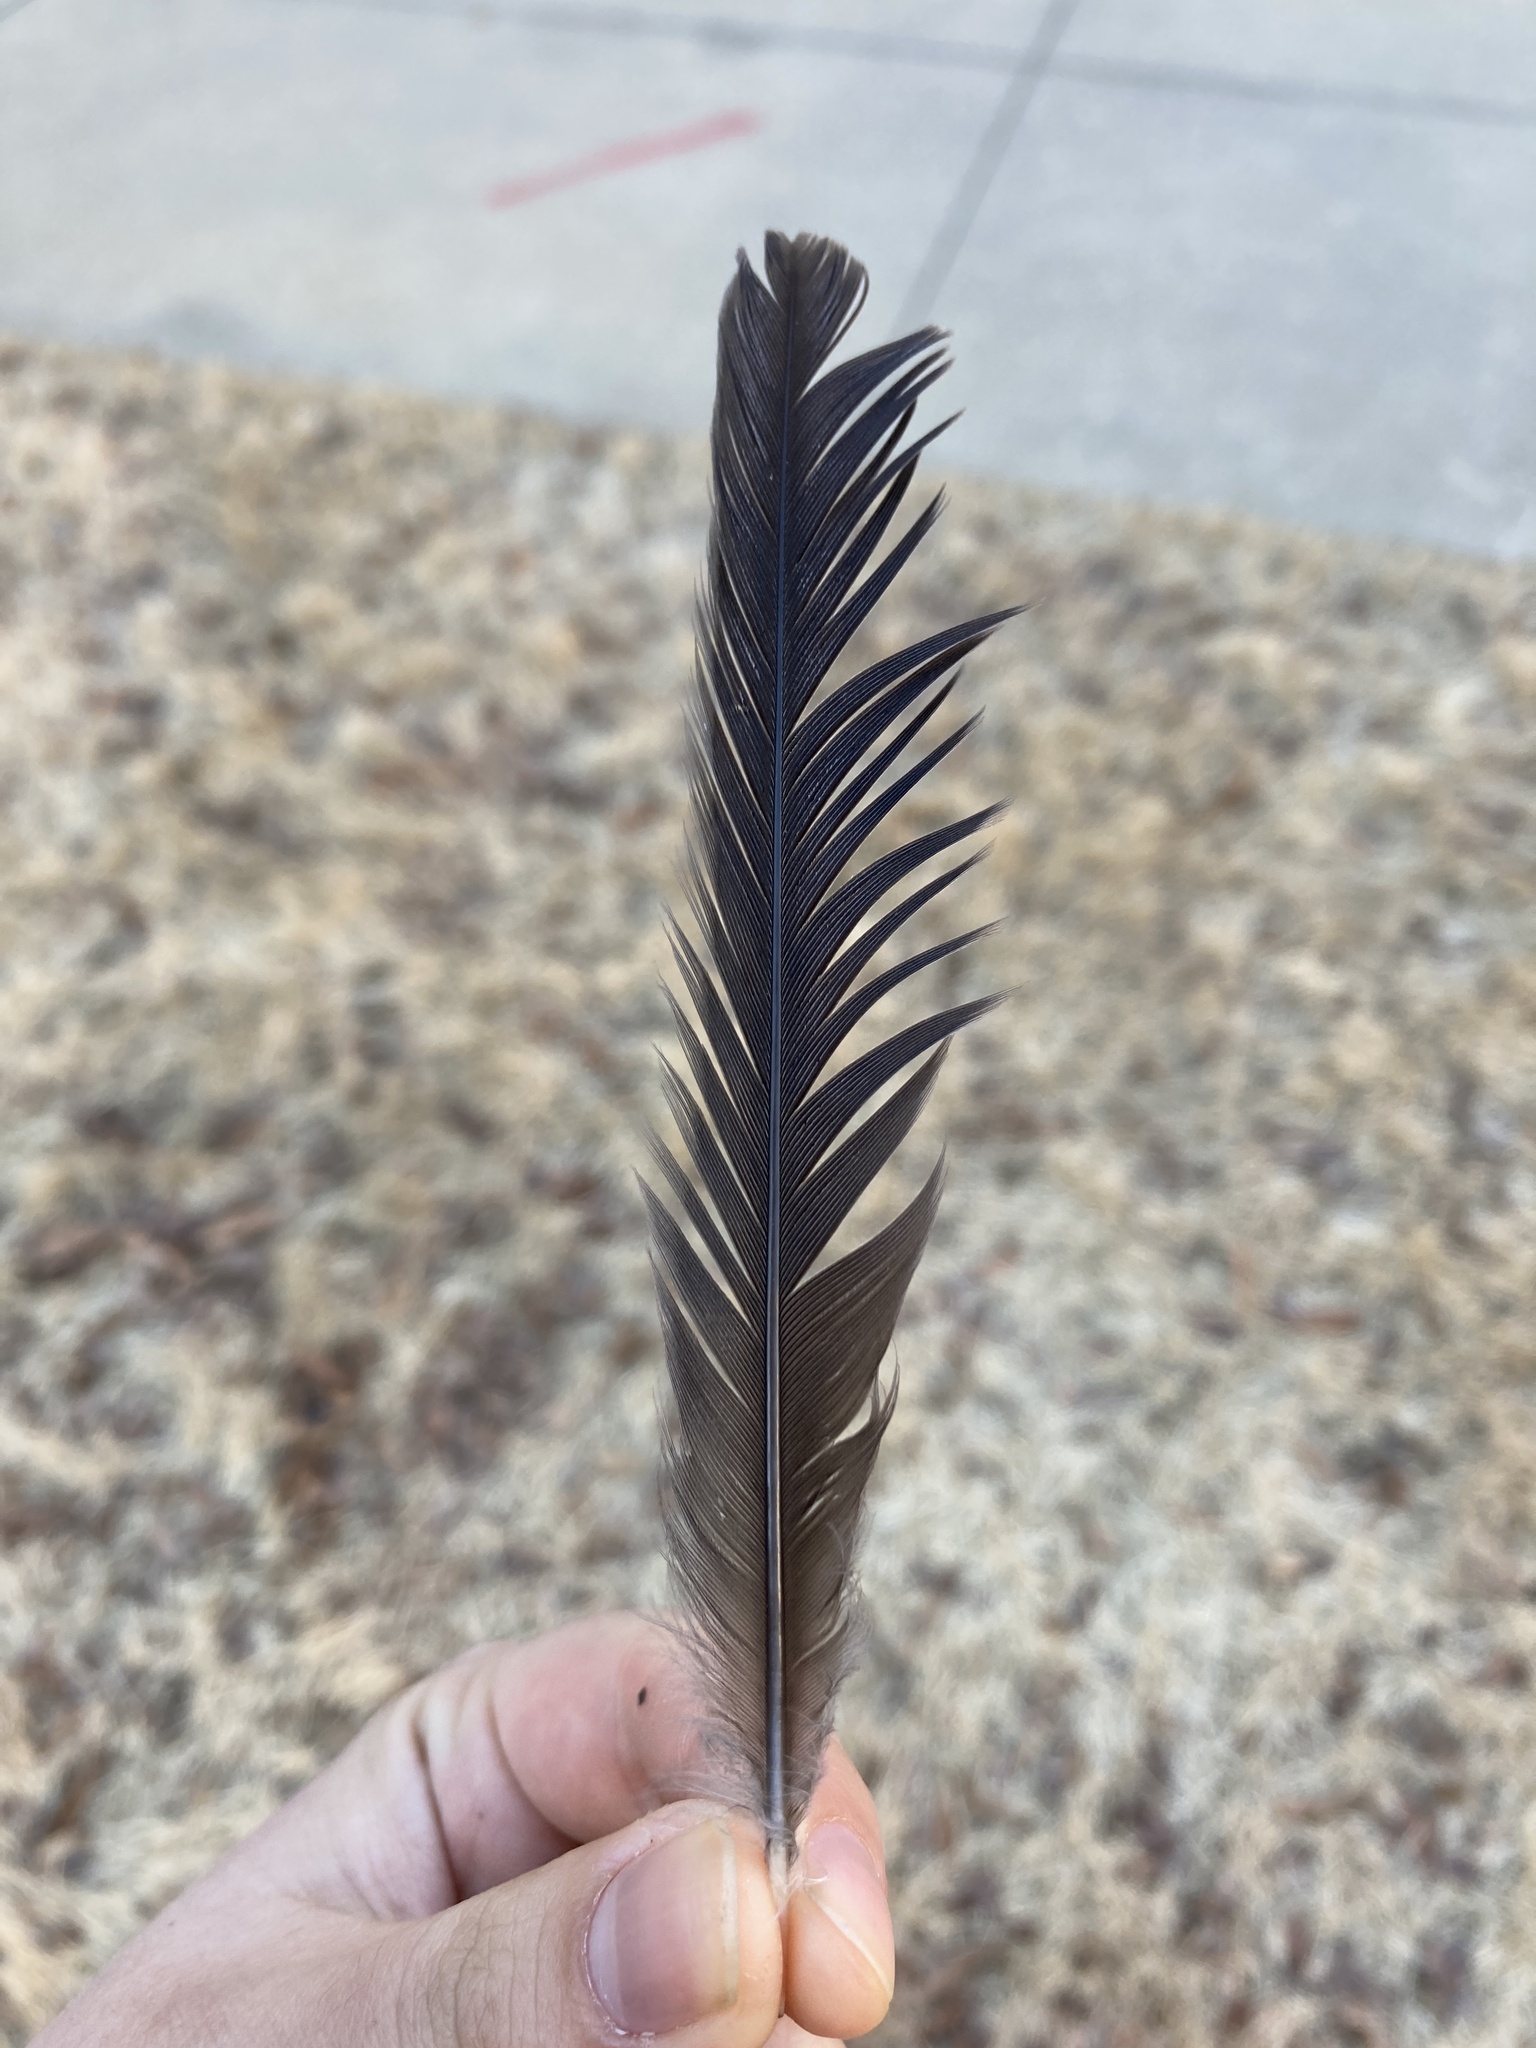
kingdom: Animalia
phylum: Chordata
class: Aves
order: Passeriformes
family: Mimidae
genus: Mimus
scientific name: Mimus polyglottos
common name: Northern mockingbird
